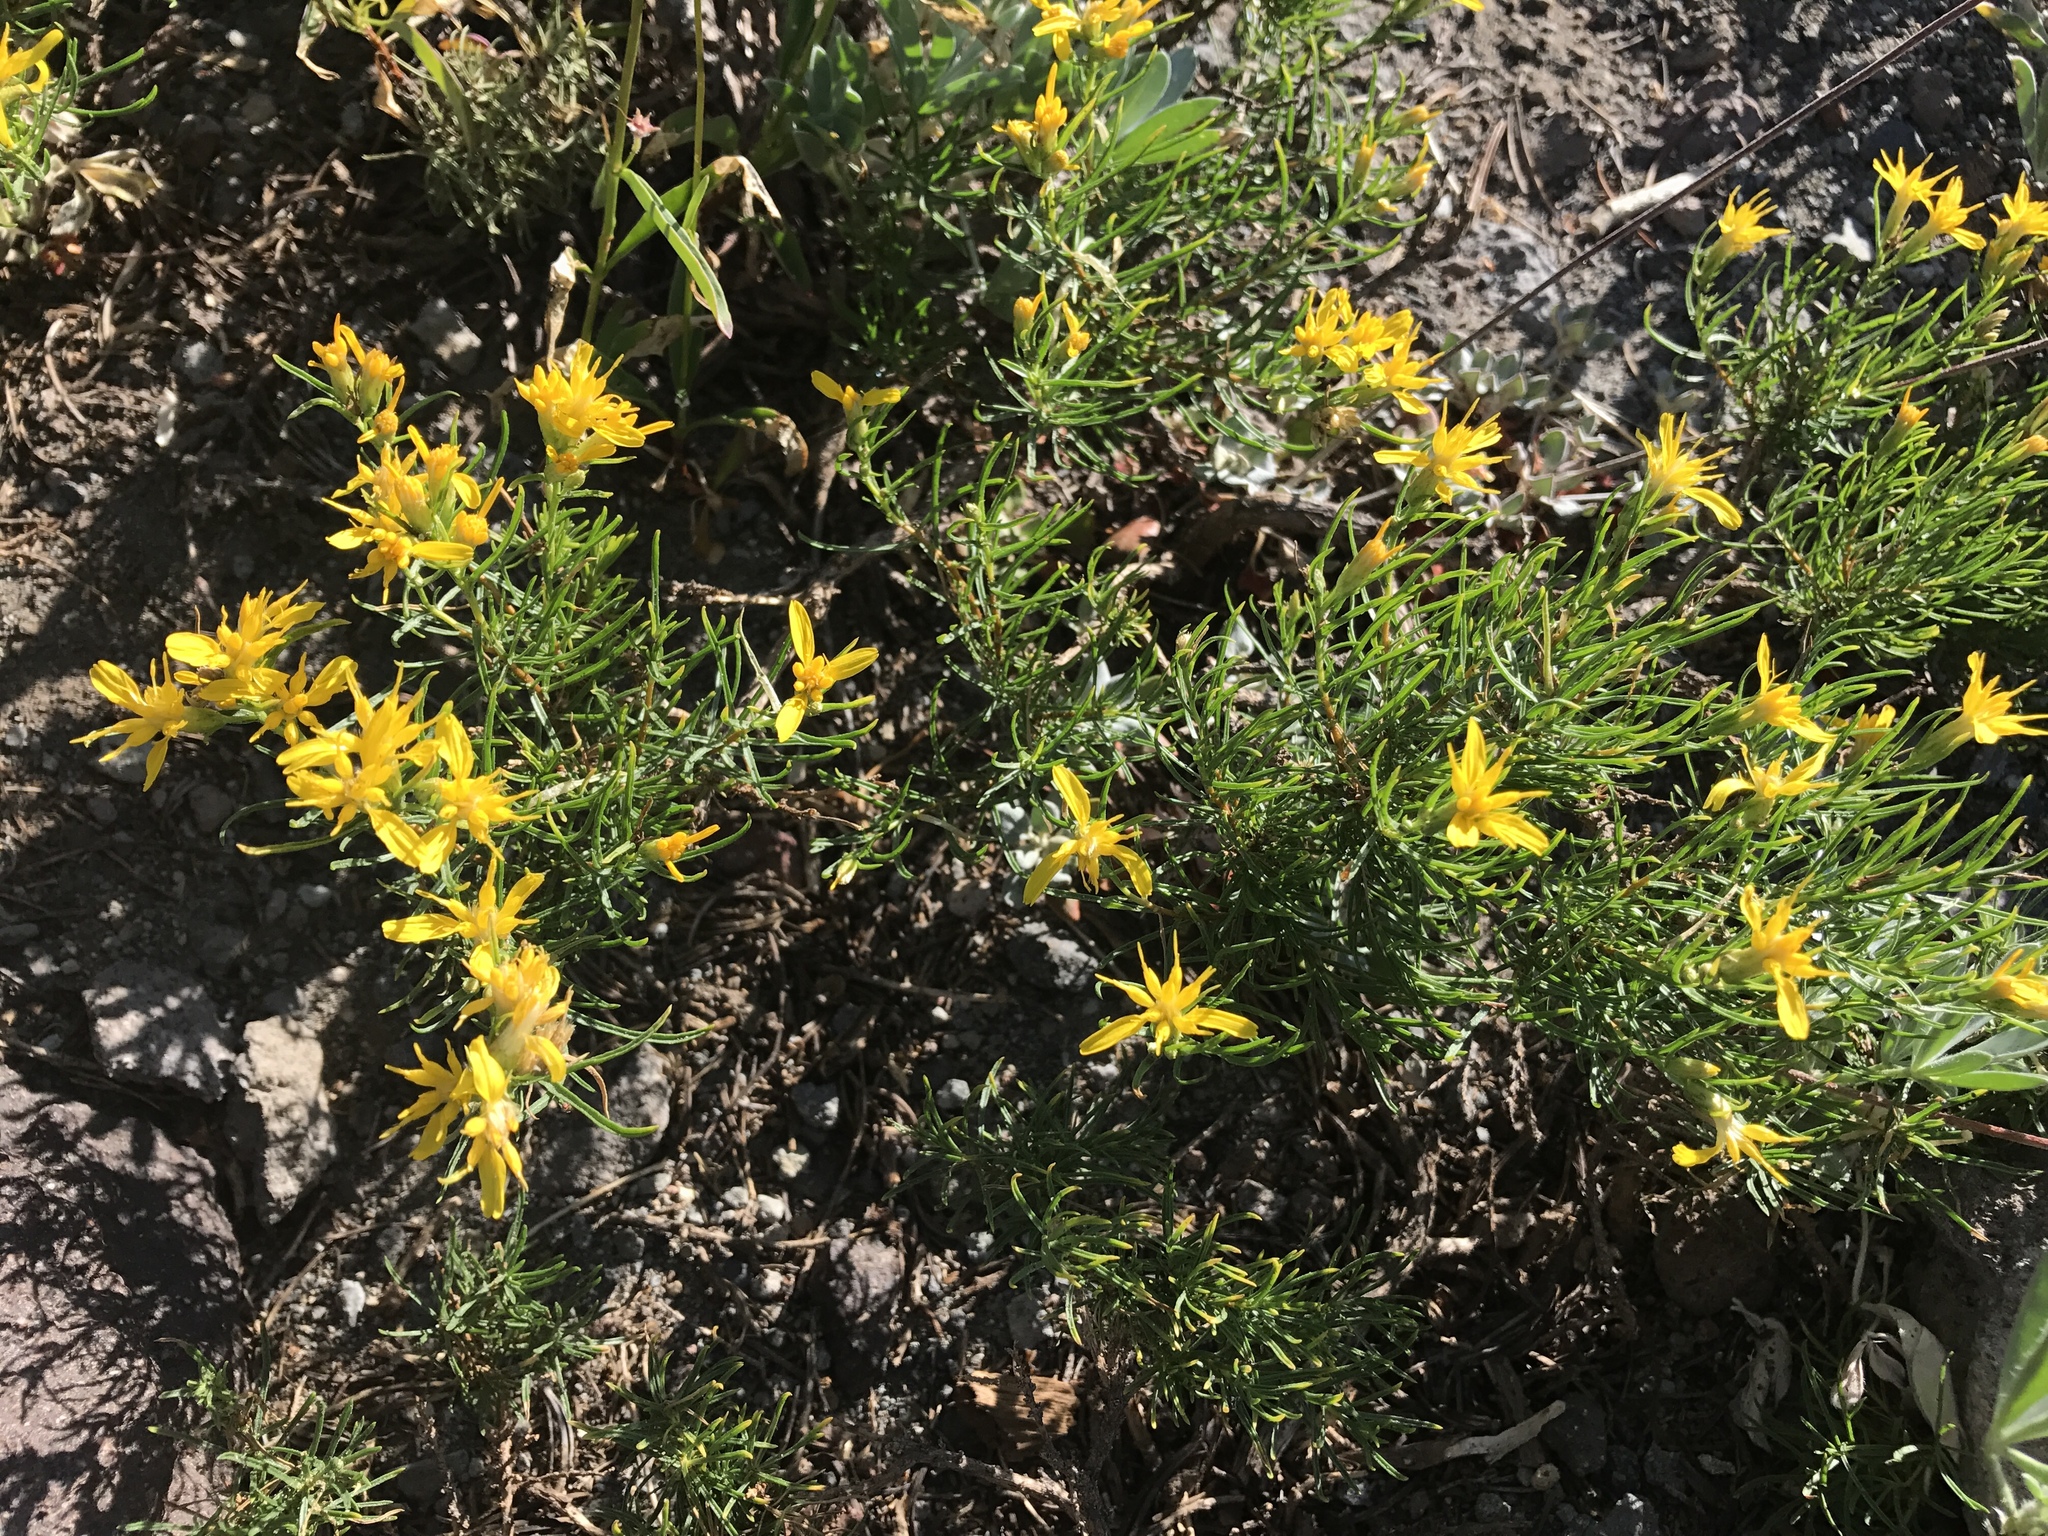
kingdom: Plantae
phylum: Tracheophyta
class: Magnoliopsida
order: Asterales
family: Asteraceae
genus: Ericameria
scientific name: Ericameria bloomeri
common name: Bloomer's goldenbush
